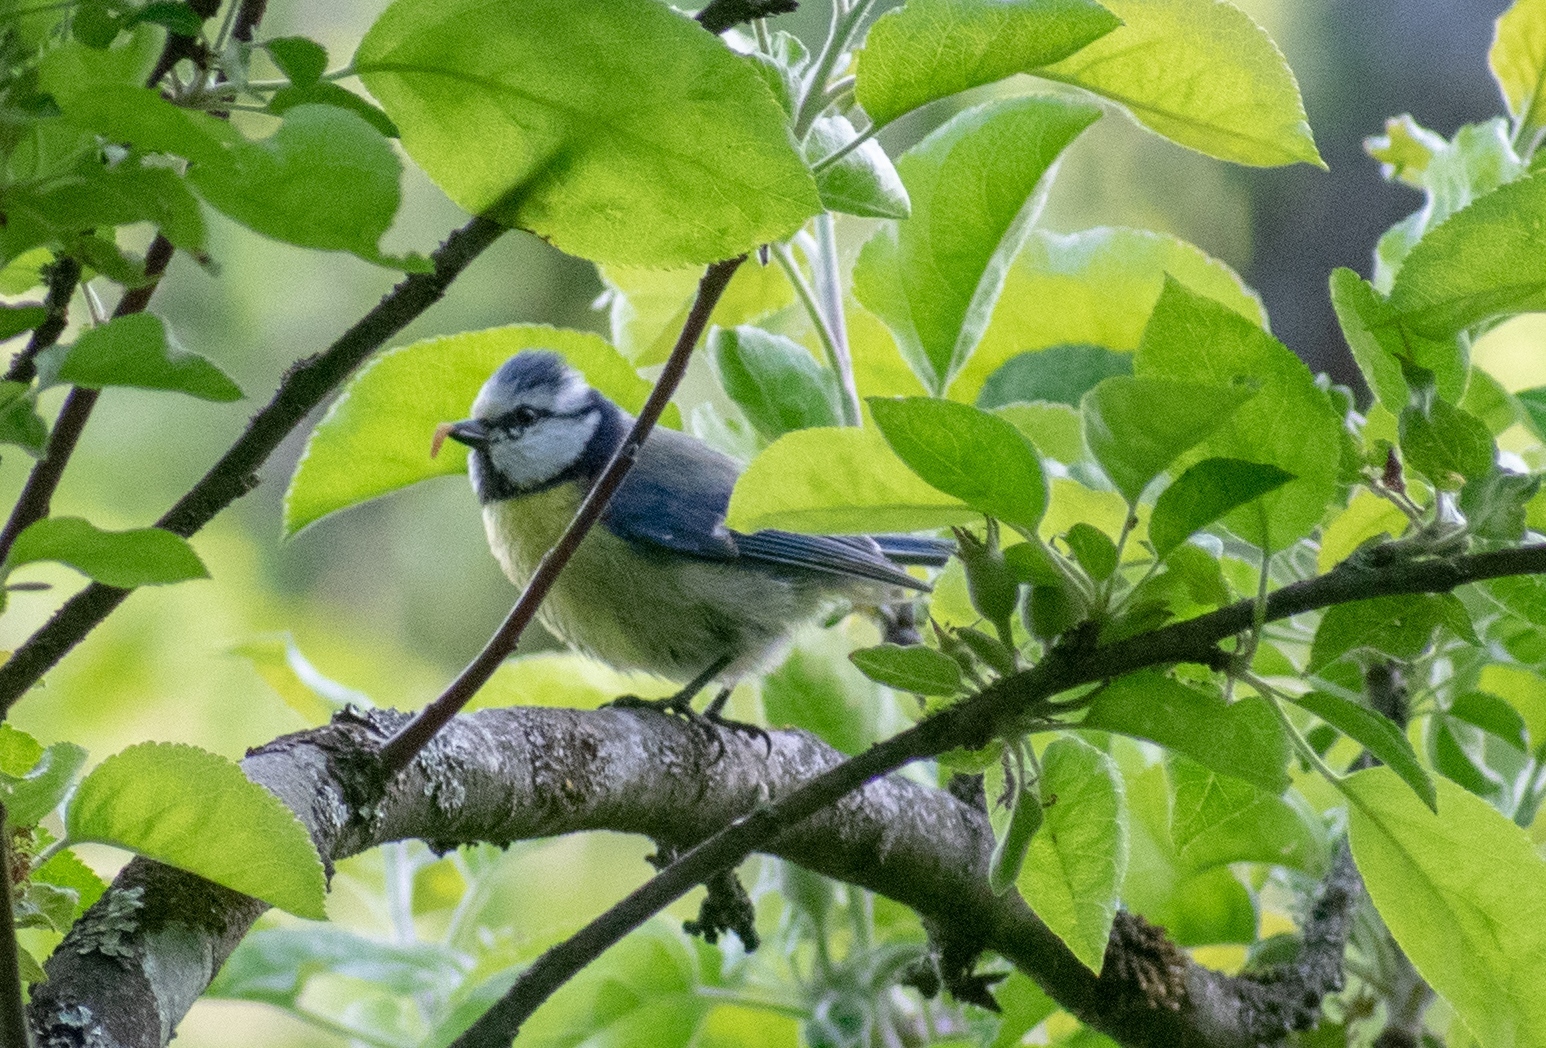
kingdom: Animalia
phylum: Chordata
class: Aves
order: Passeriformes
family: Paridae
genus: Cyanistes
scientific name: Cyanistes caeruleus
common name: Eurasian blue tit
